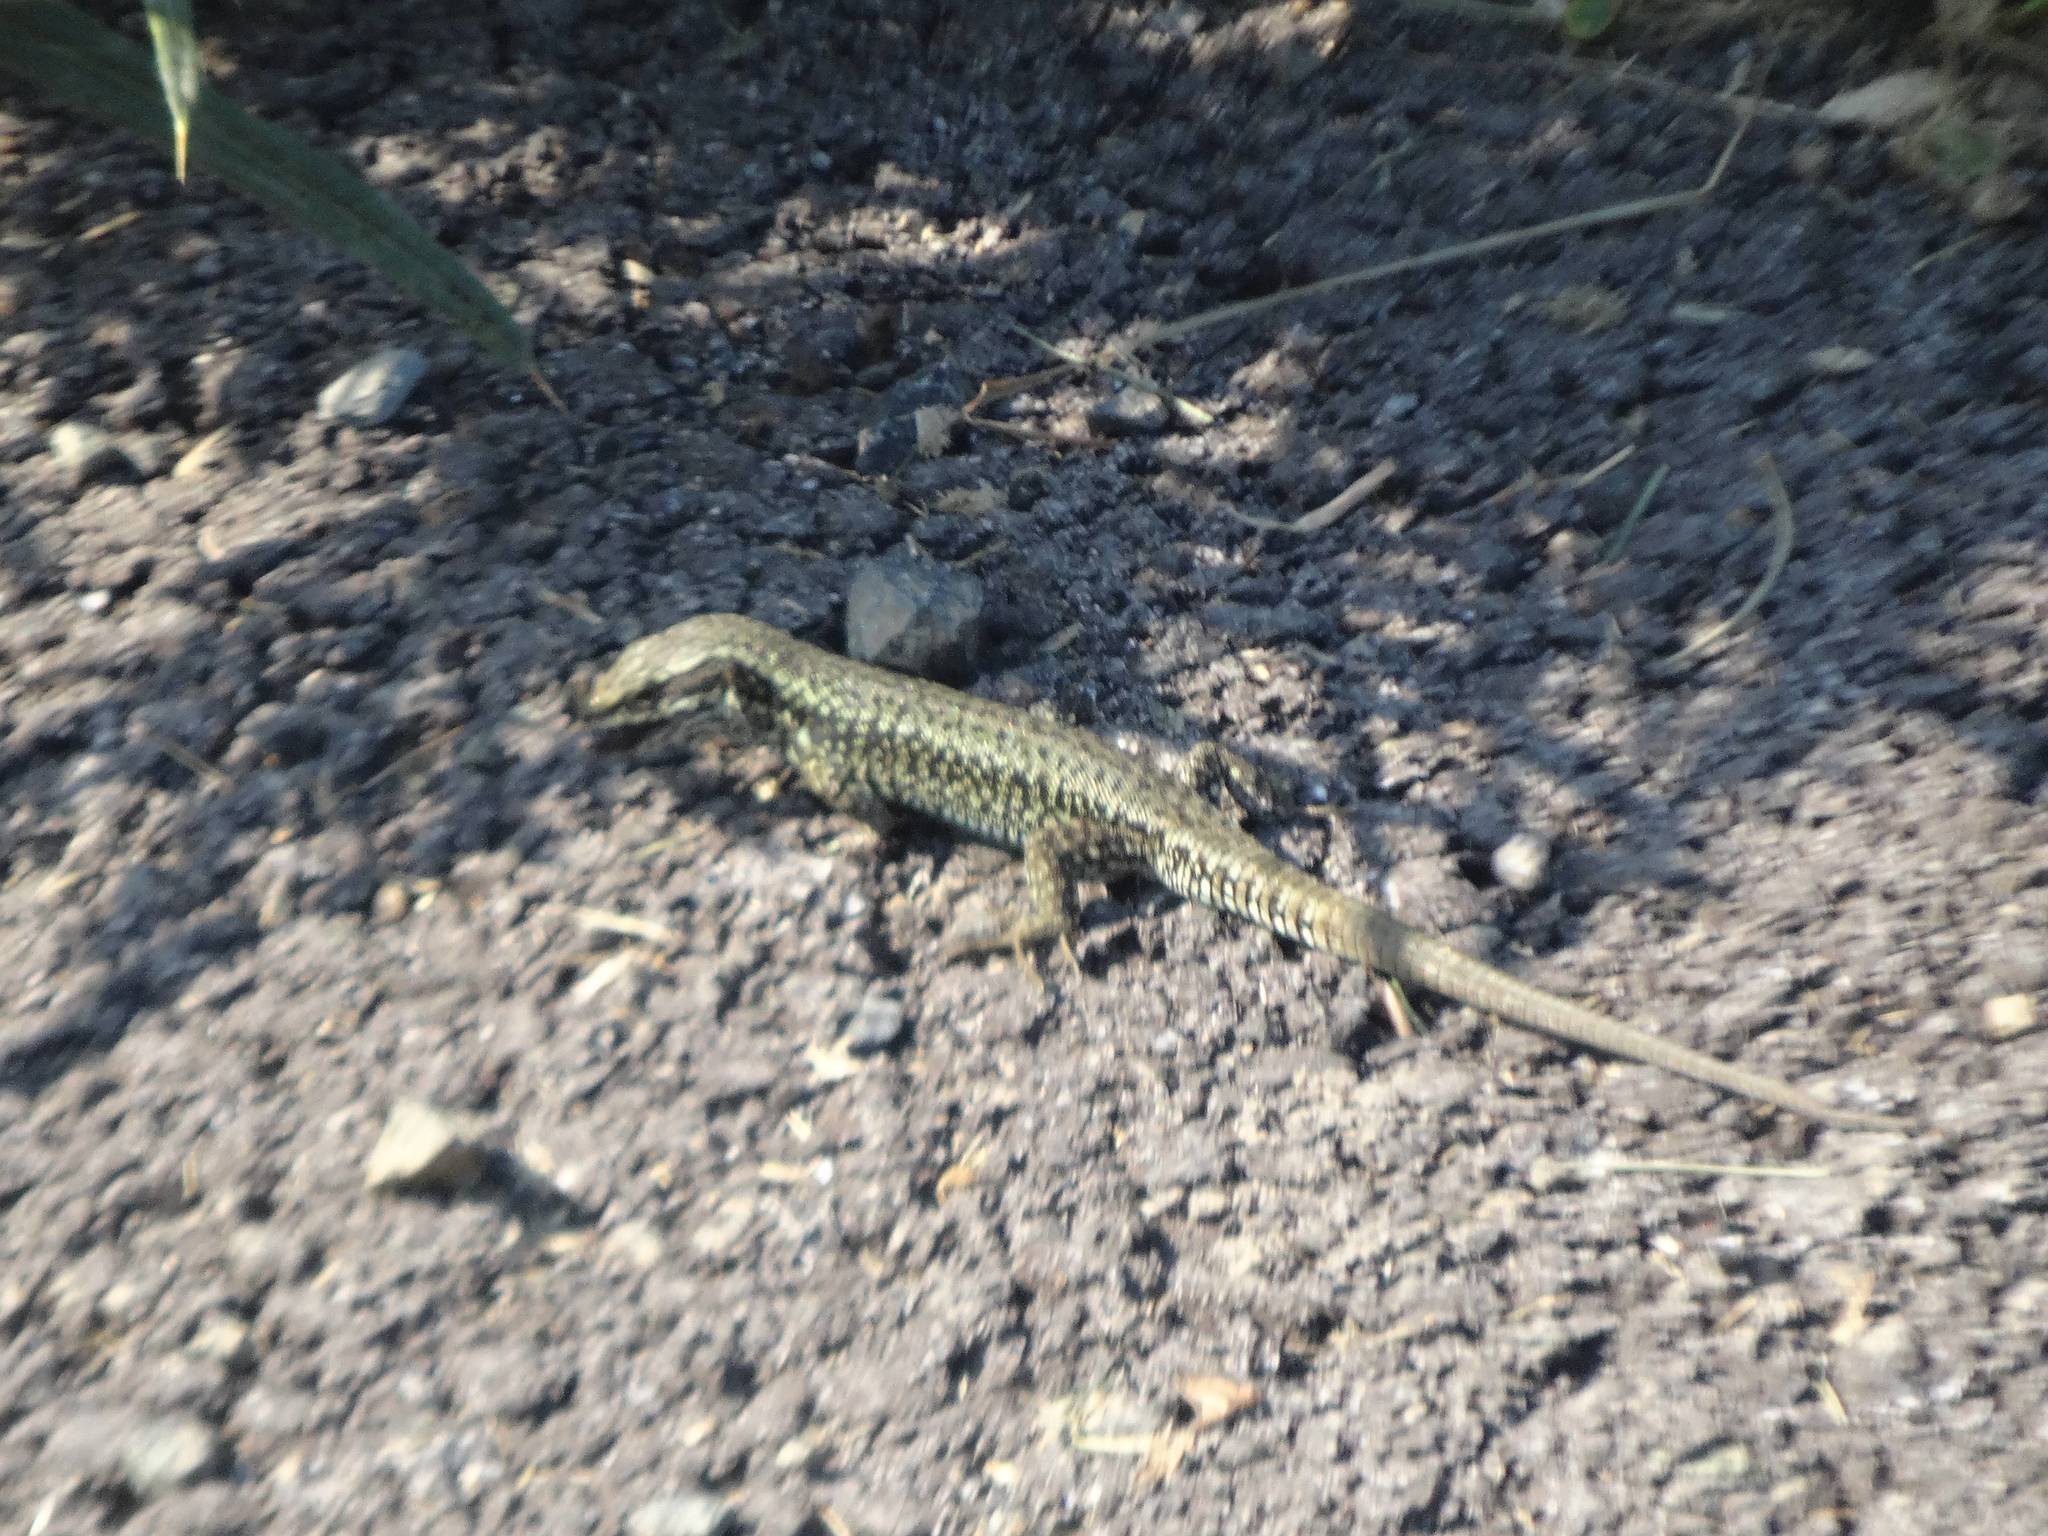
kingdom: Animalia
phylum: Chordata
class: Squamata
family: Lacertidae
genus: Podarcis
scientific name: Podarcis muralis
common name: Common wall lizard
